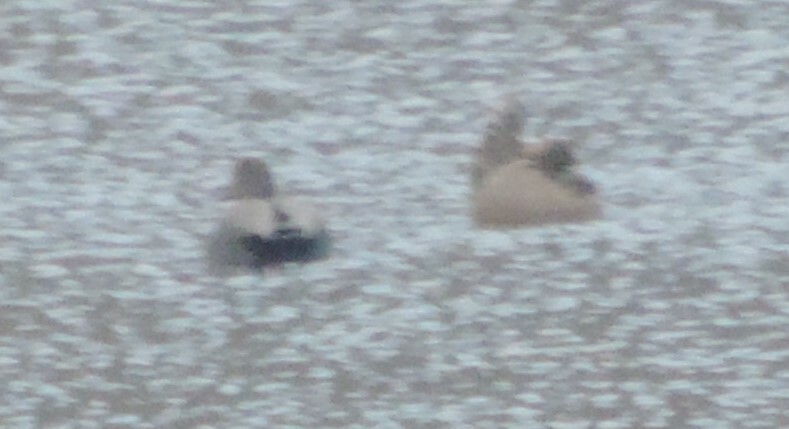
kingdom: Animalia
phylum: Chordata
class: Aves
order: Anseriformes
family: Anatidae
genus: Mareca
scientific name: Mareca strepera
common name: Gadwall
